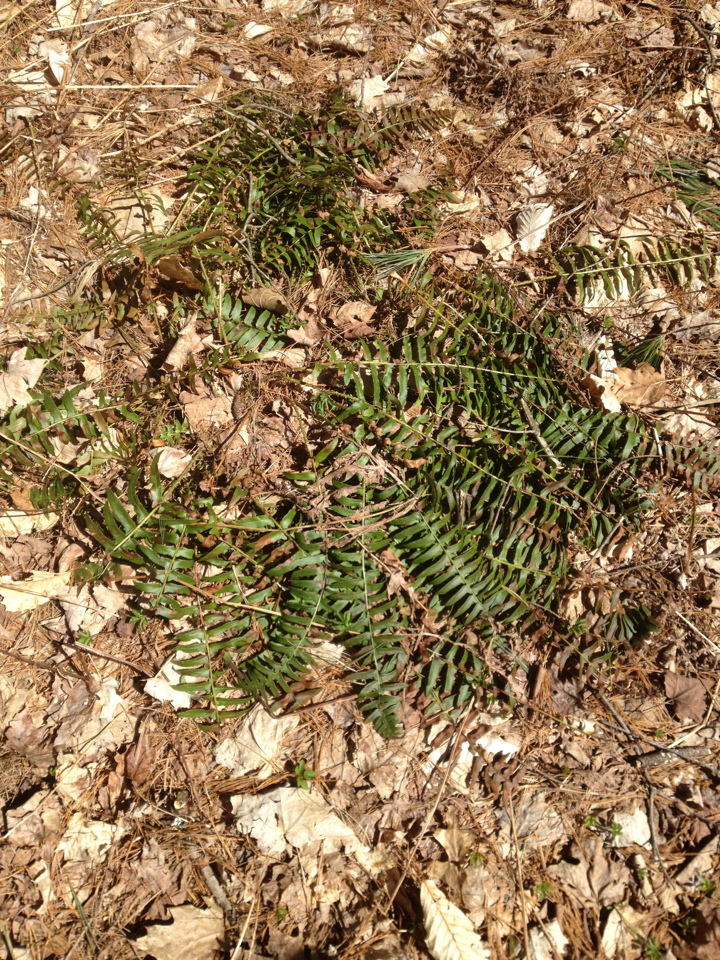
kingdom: Plantae
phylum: Tracheophyta
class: Polypodiopsida
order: Polypodiales
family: Dryopteridaceae
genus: Polystichum
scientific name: Polystichum acrostichoides
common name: Christmas fern
